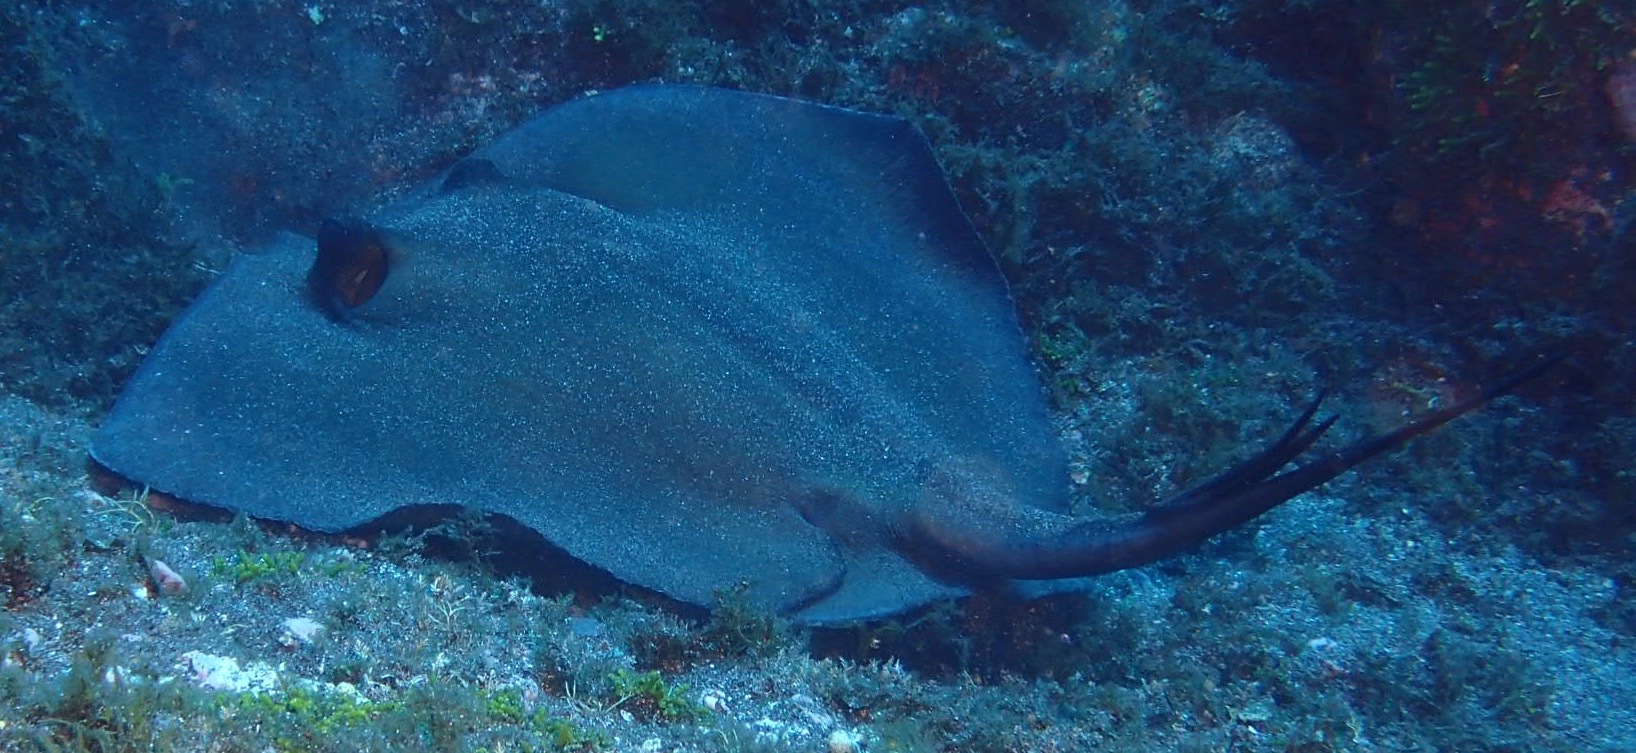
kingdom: Animalia
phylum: Chordata
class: Elasmobranchii
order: Myliobatiformes
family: Dasyatidae
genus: Dasyatis
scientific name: Dasyatis pastinaca
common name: Common stingray
